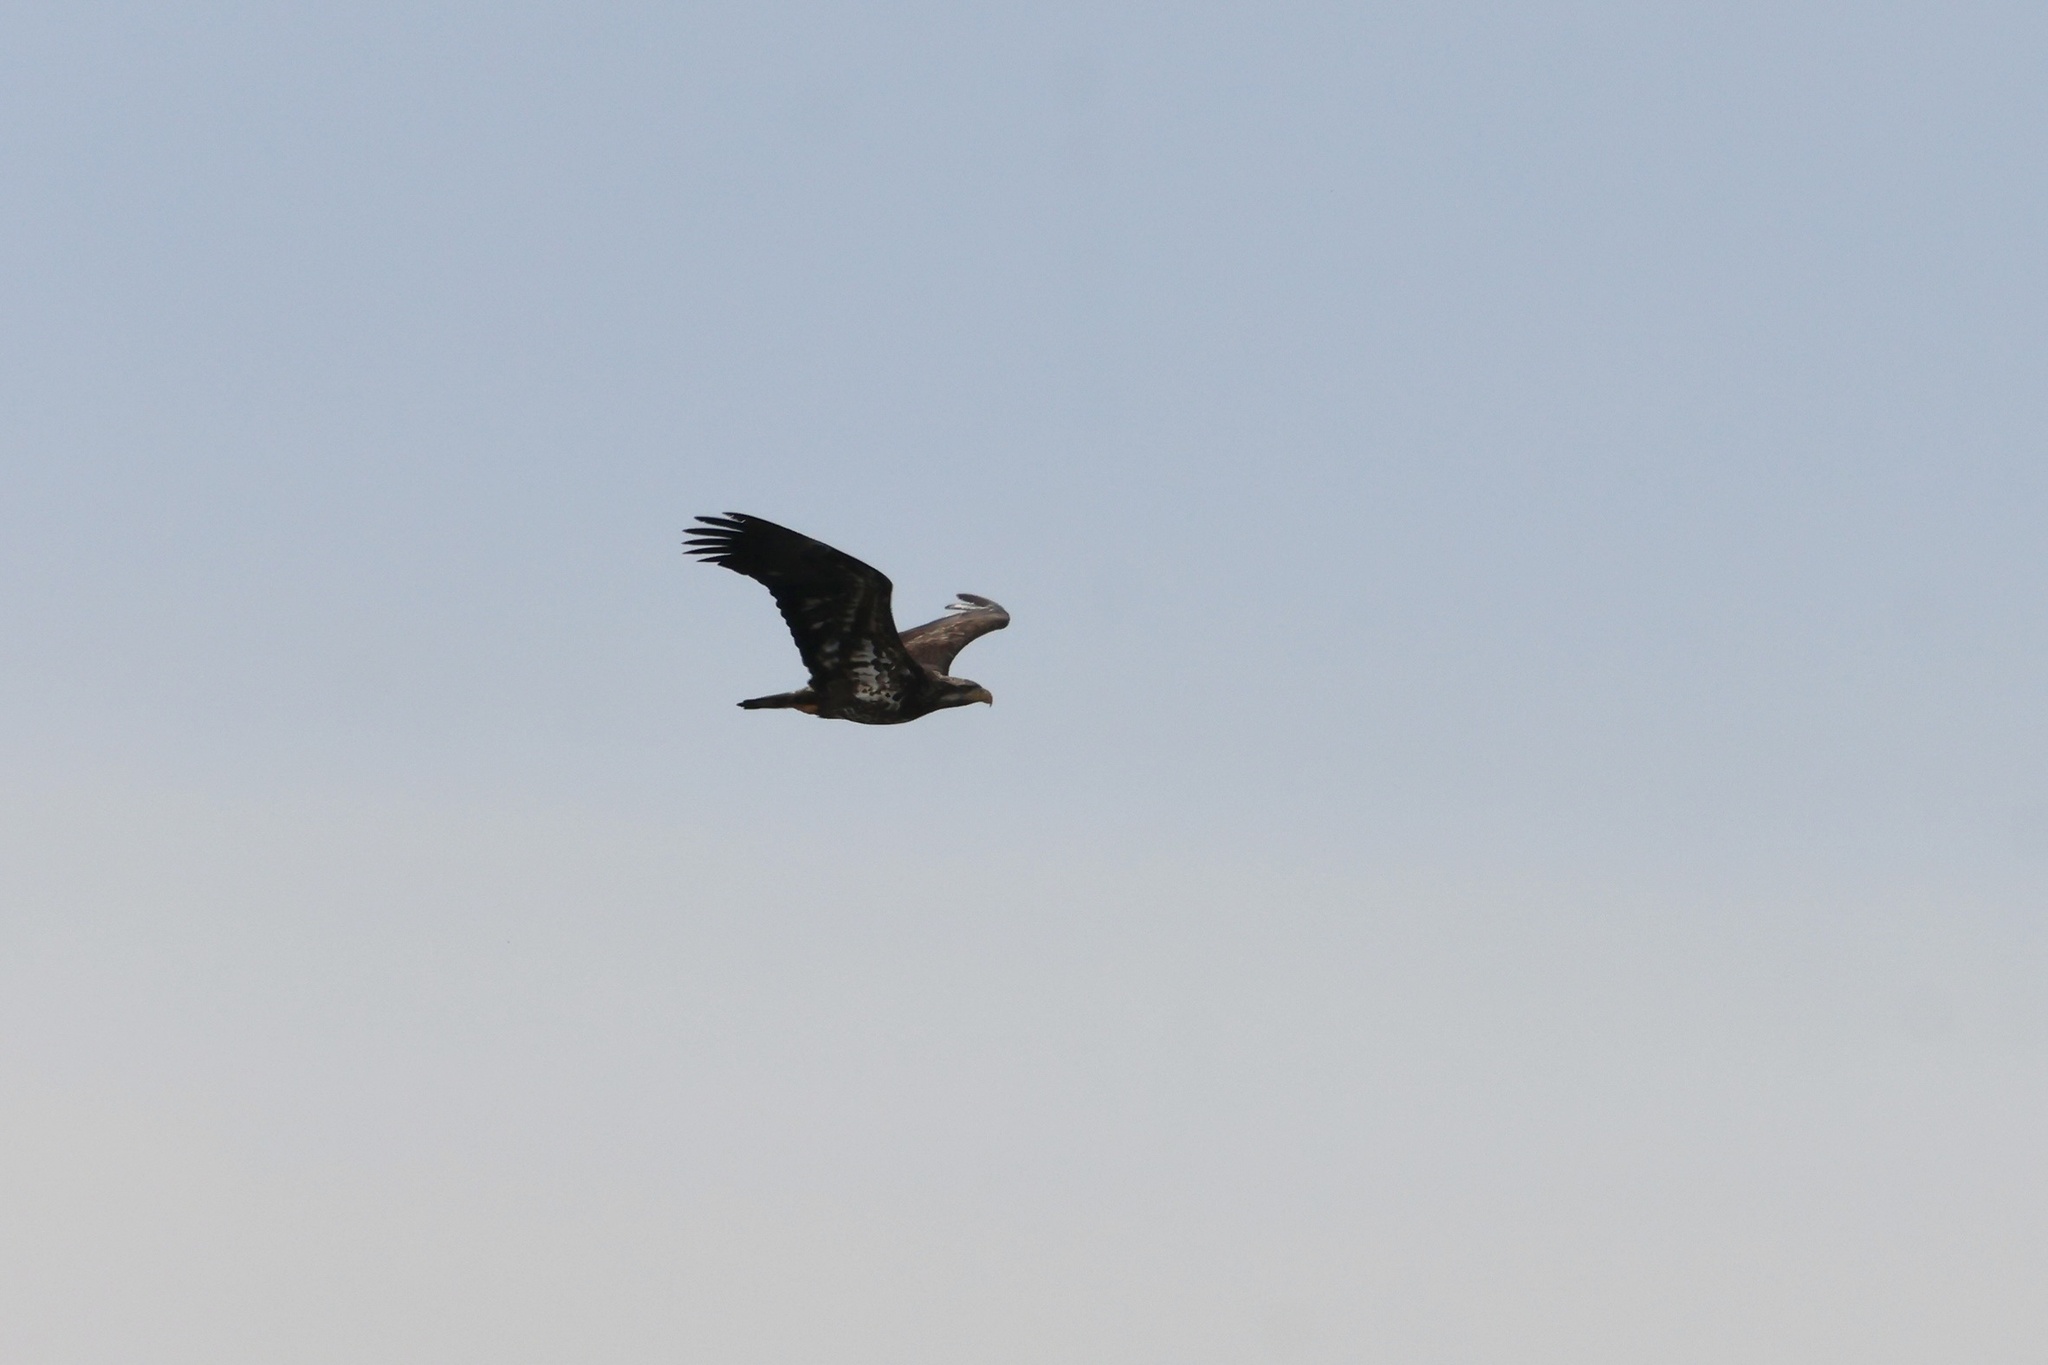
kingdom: Animalia
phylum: Chordata
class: Aves
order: Accipitriformes
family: Accipitridae
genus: Haliaeetus
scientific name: Haliaeetus leucocephalus
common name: Bald eagle
